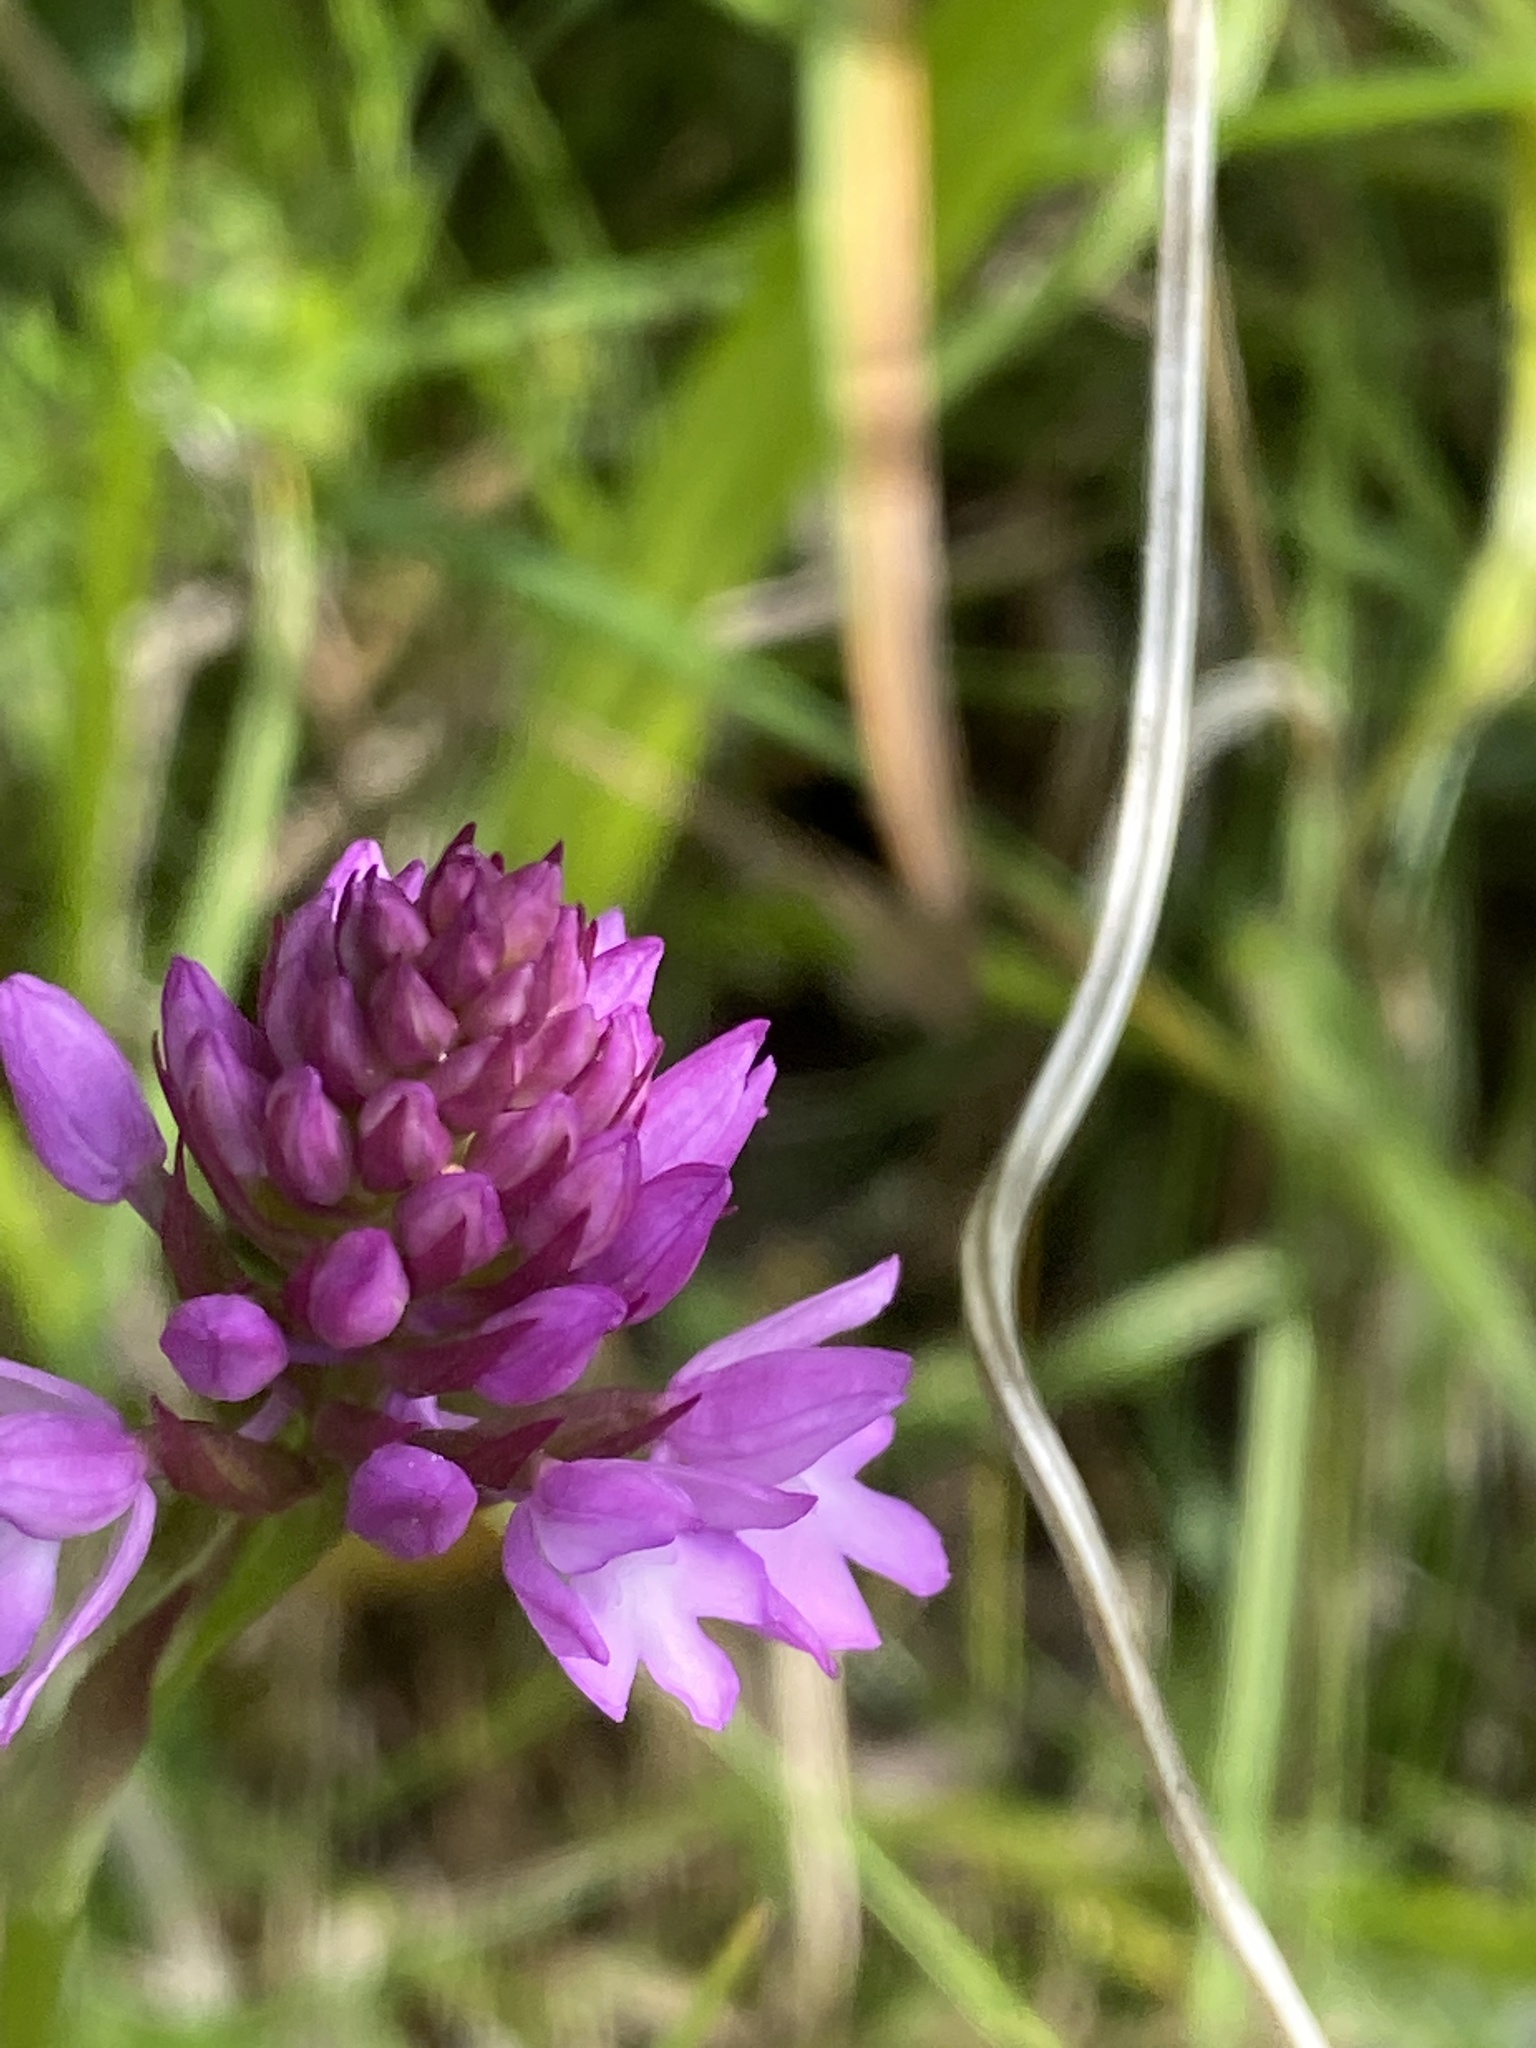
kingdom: Plantae
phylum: Tracheophyta
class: Liliopsida
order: Asparagales
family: Orchidaceae
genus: Anacamptis
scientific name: Anacamptis pyramidalis
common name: Pyramidal orchid
